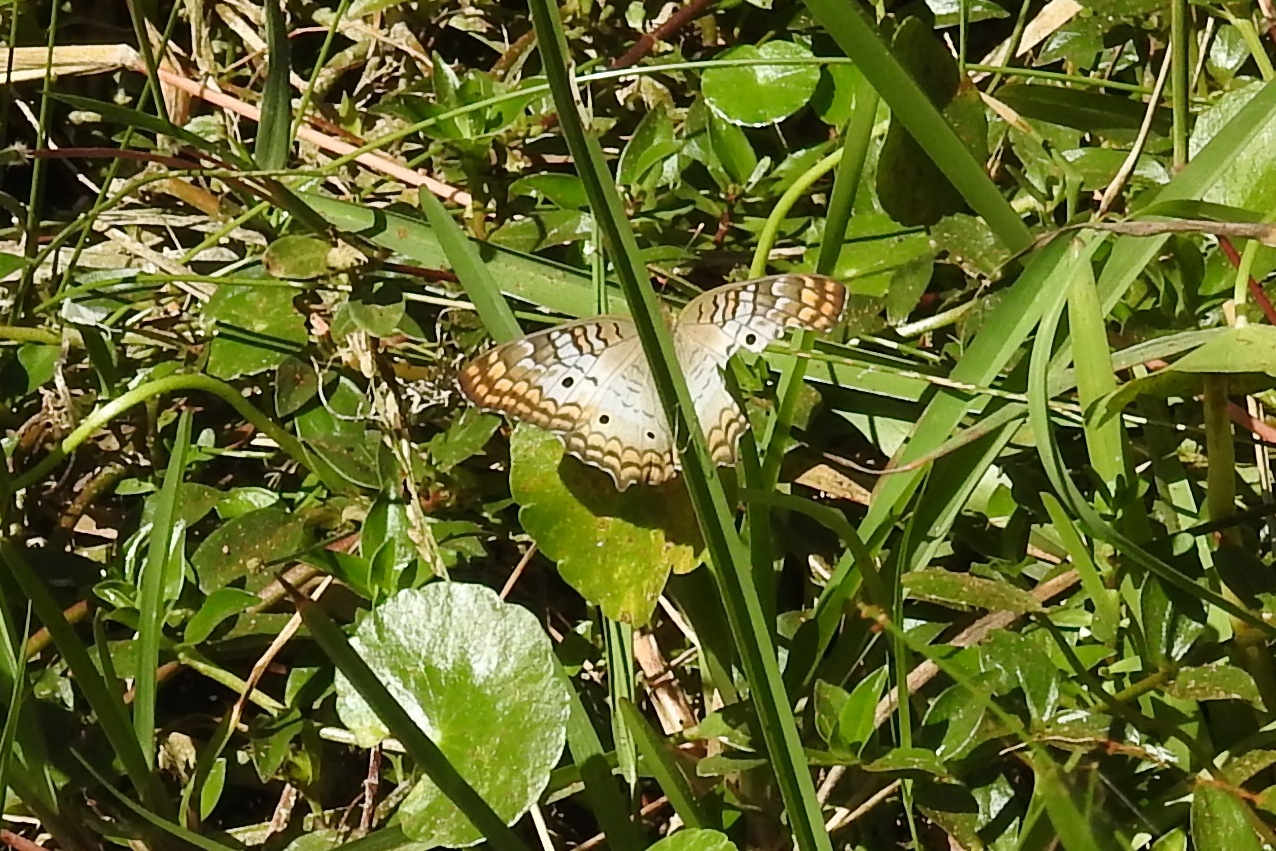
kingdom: Animalia
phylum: Arthropoda
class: Insecta
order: Lepidoptera
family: Nymphalidae
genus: Anartia
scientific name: Anartia jatrophae
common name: White peacock
